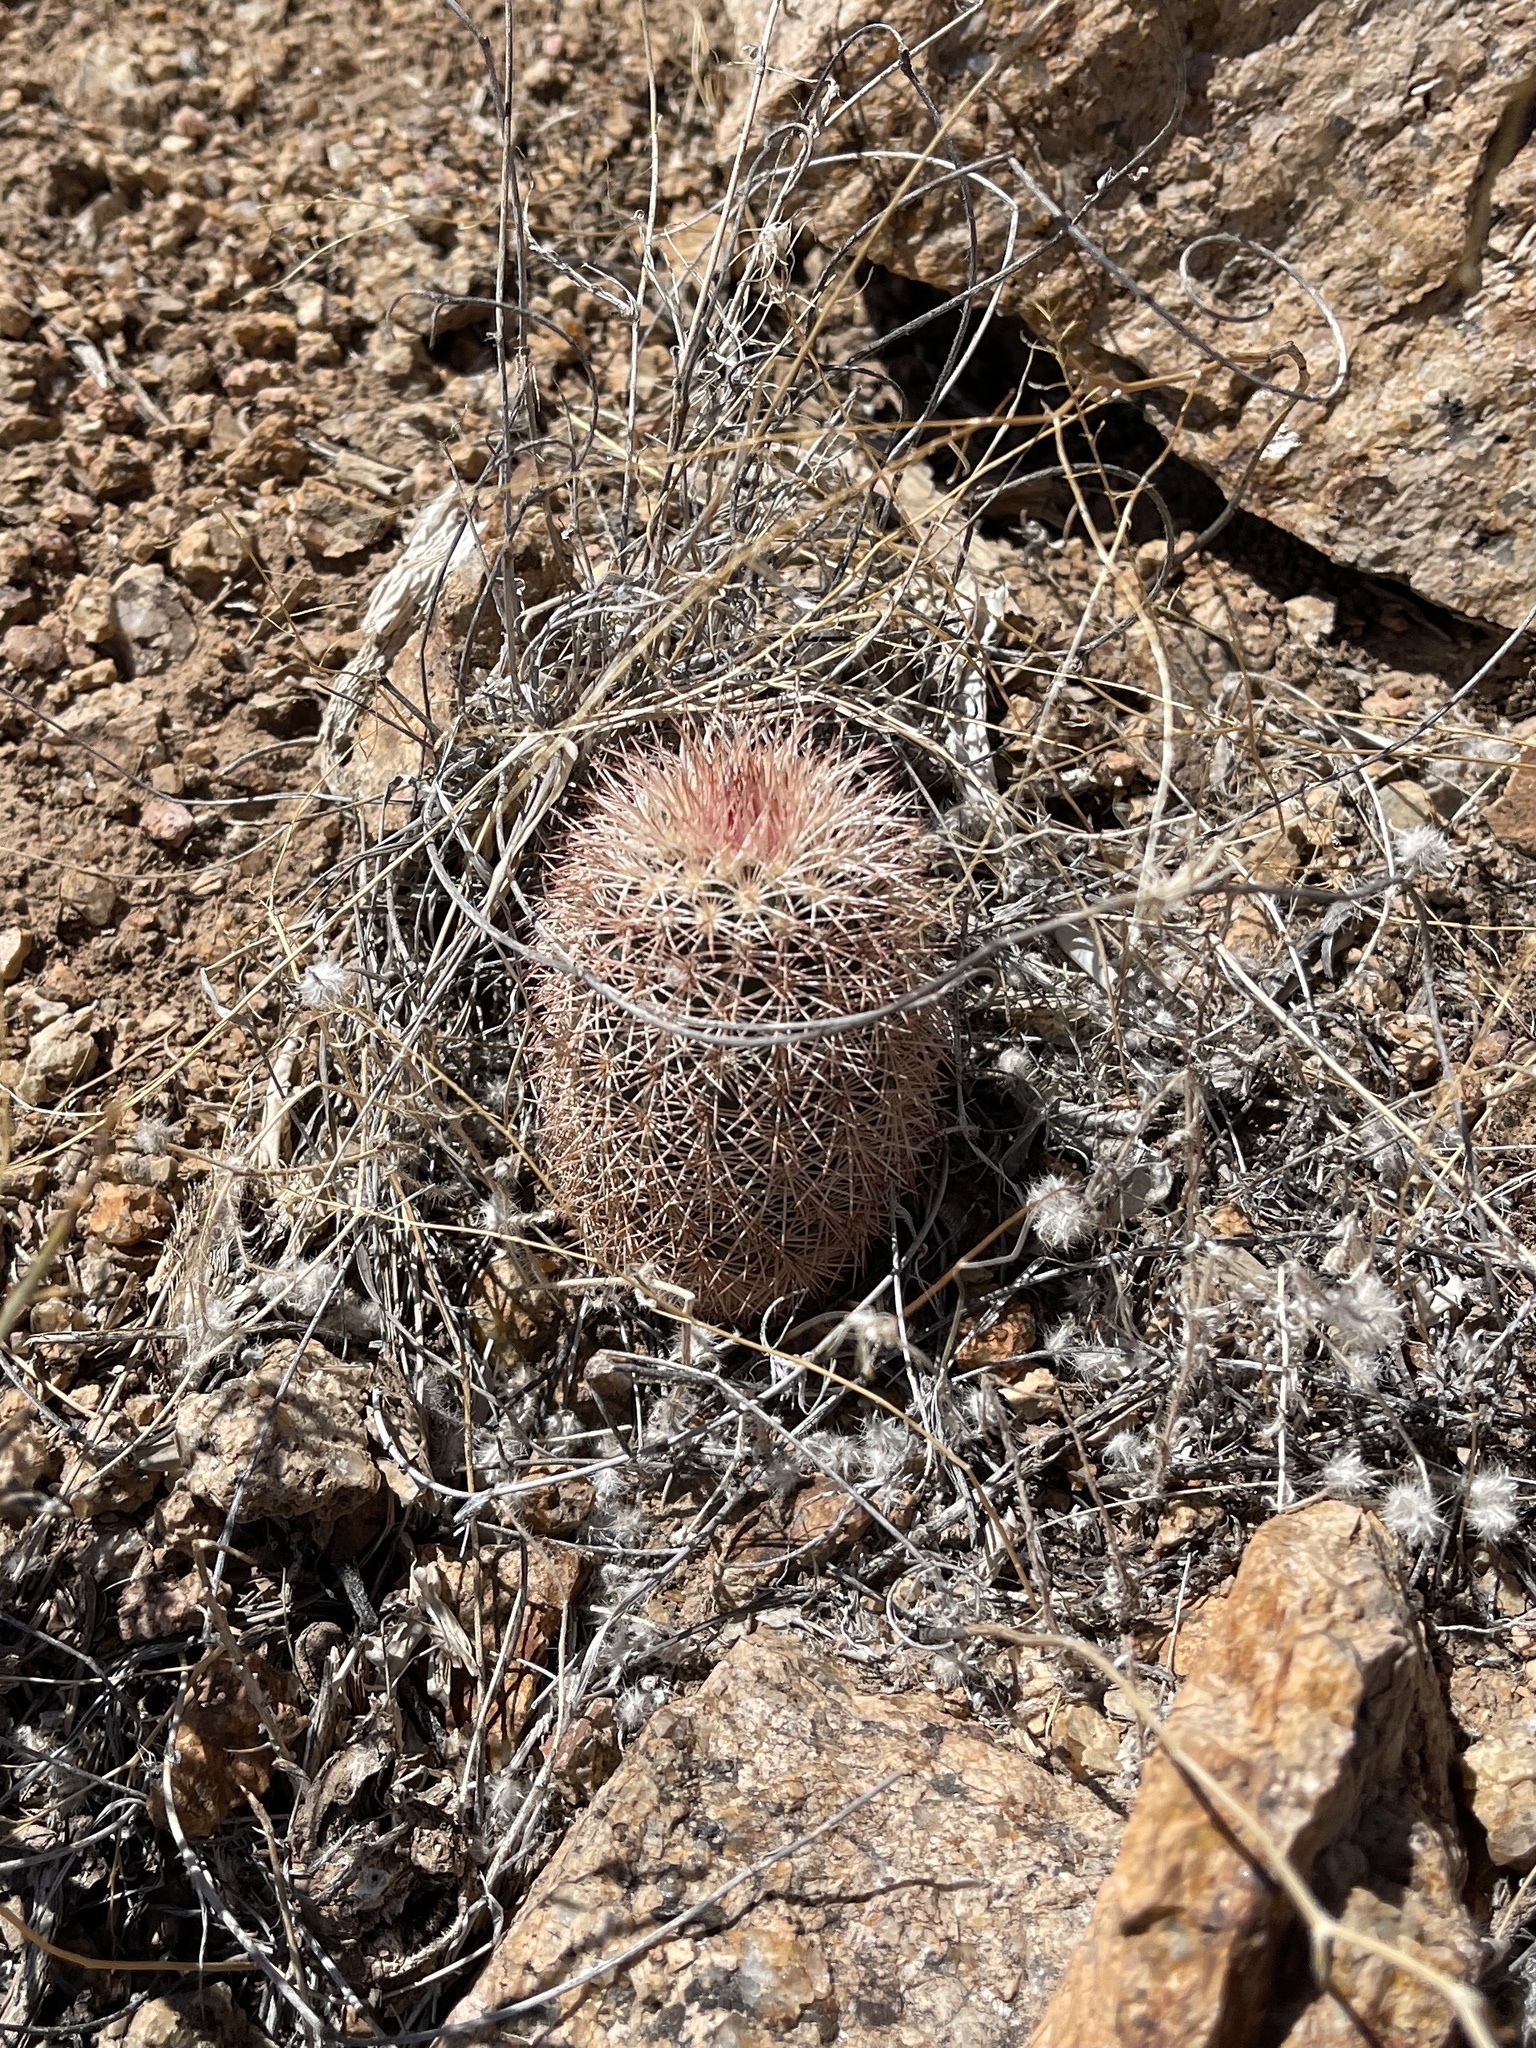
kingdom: Plantae
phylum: Tracheophyta
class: Magnoliopsida
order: Caryophyllales
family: Cactaceae
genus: Echinocereus
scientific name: Echinocereus dasyacanthus
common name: Spiny hedgehog cactus
